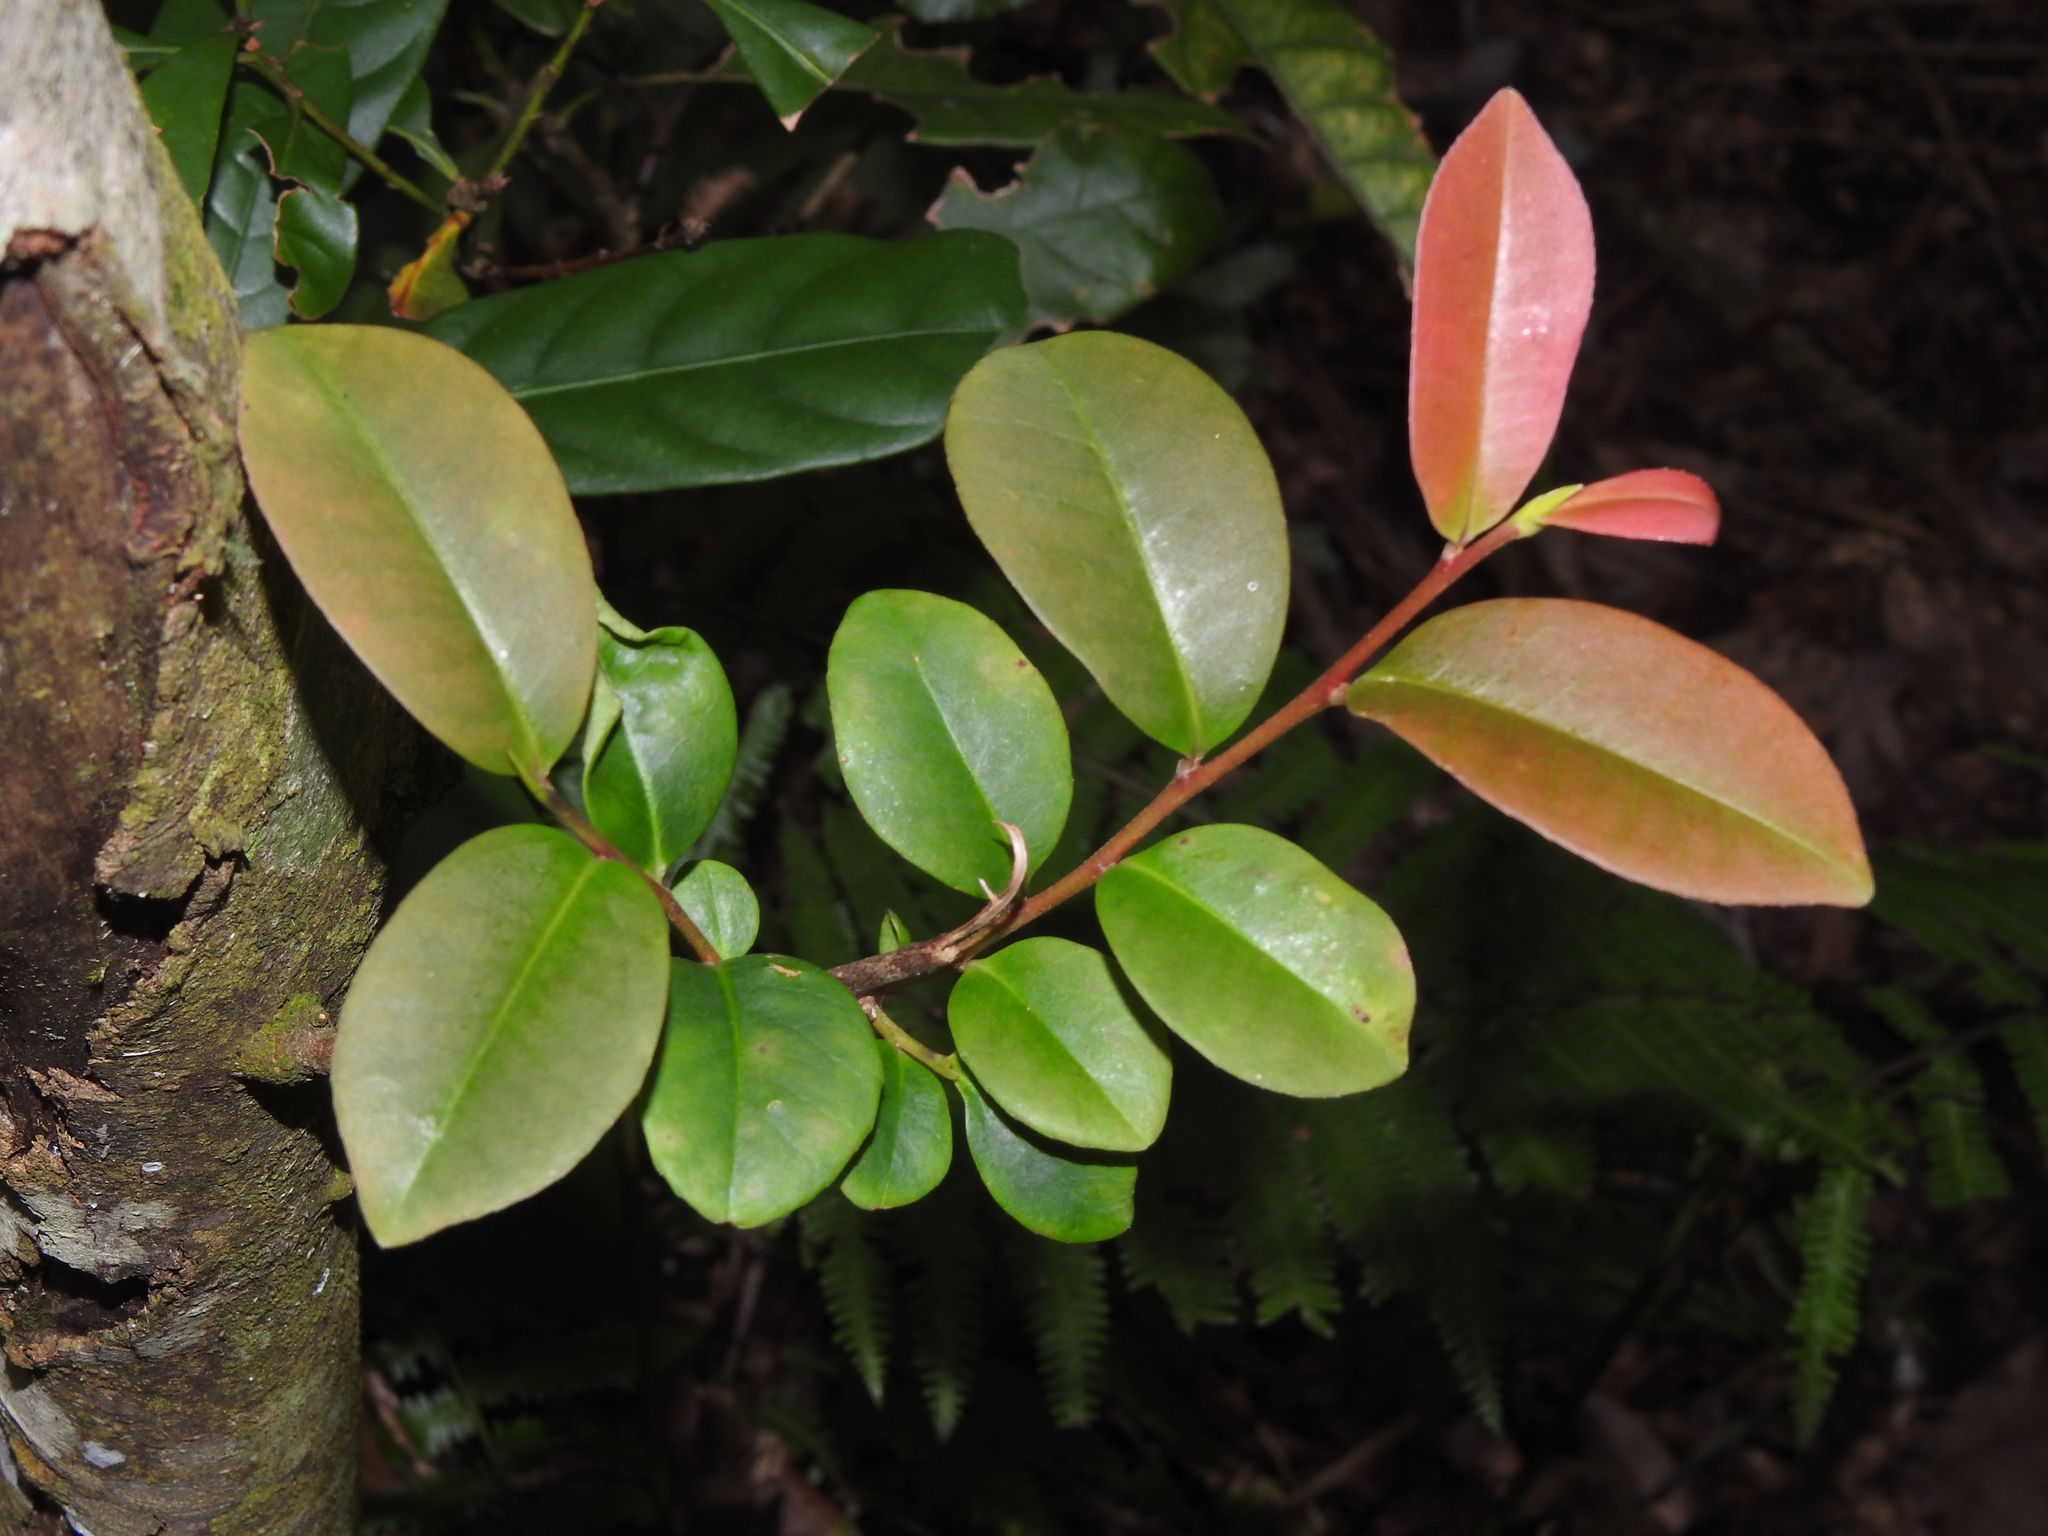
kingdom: Plantae
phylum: Tracheophyta
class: Magnoliopsida
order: Ericales
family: Pentaphylacaceae
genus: Adinandra
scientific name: Adinandra formosana
